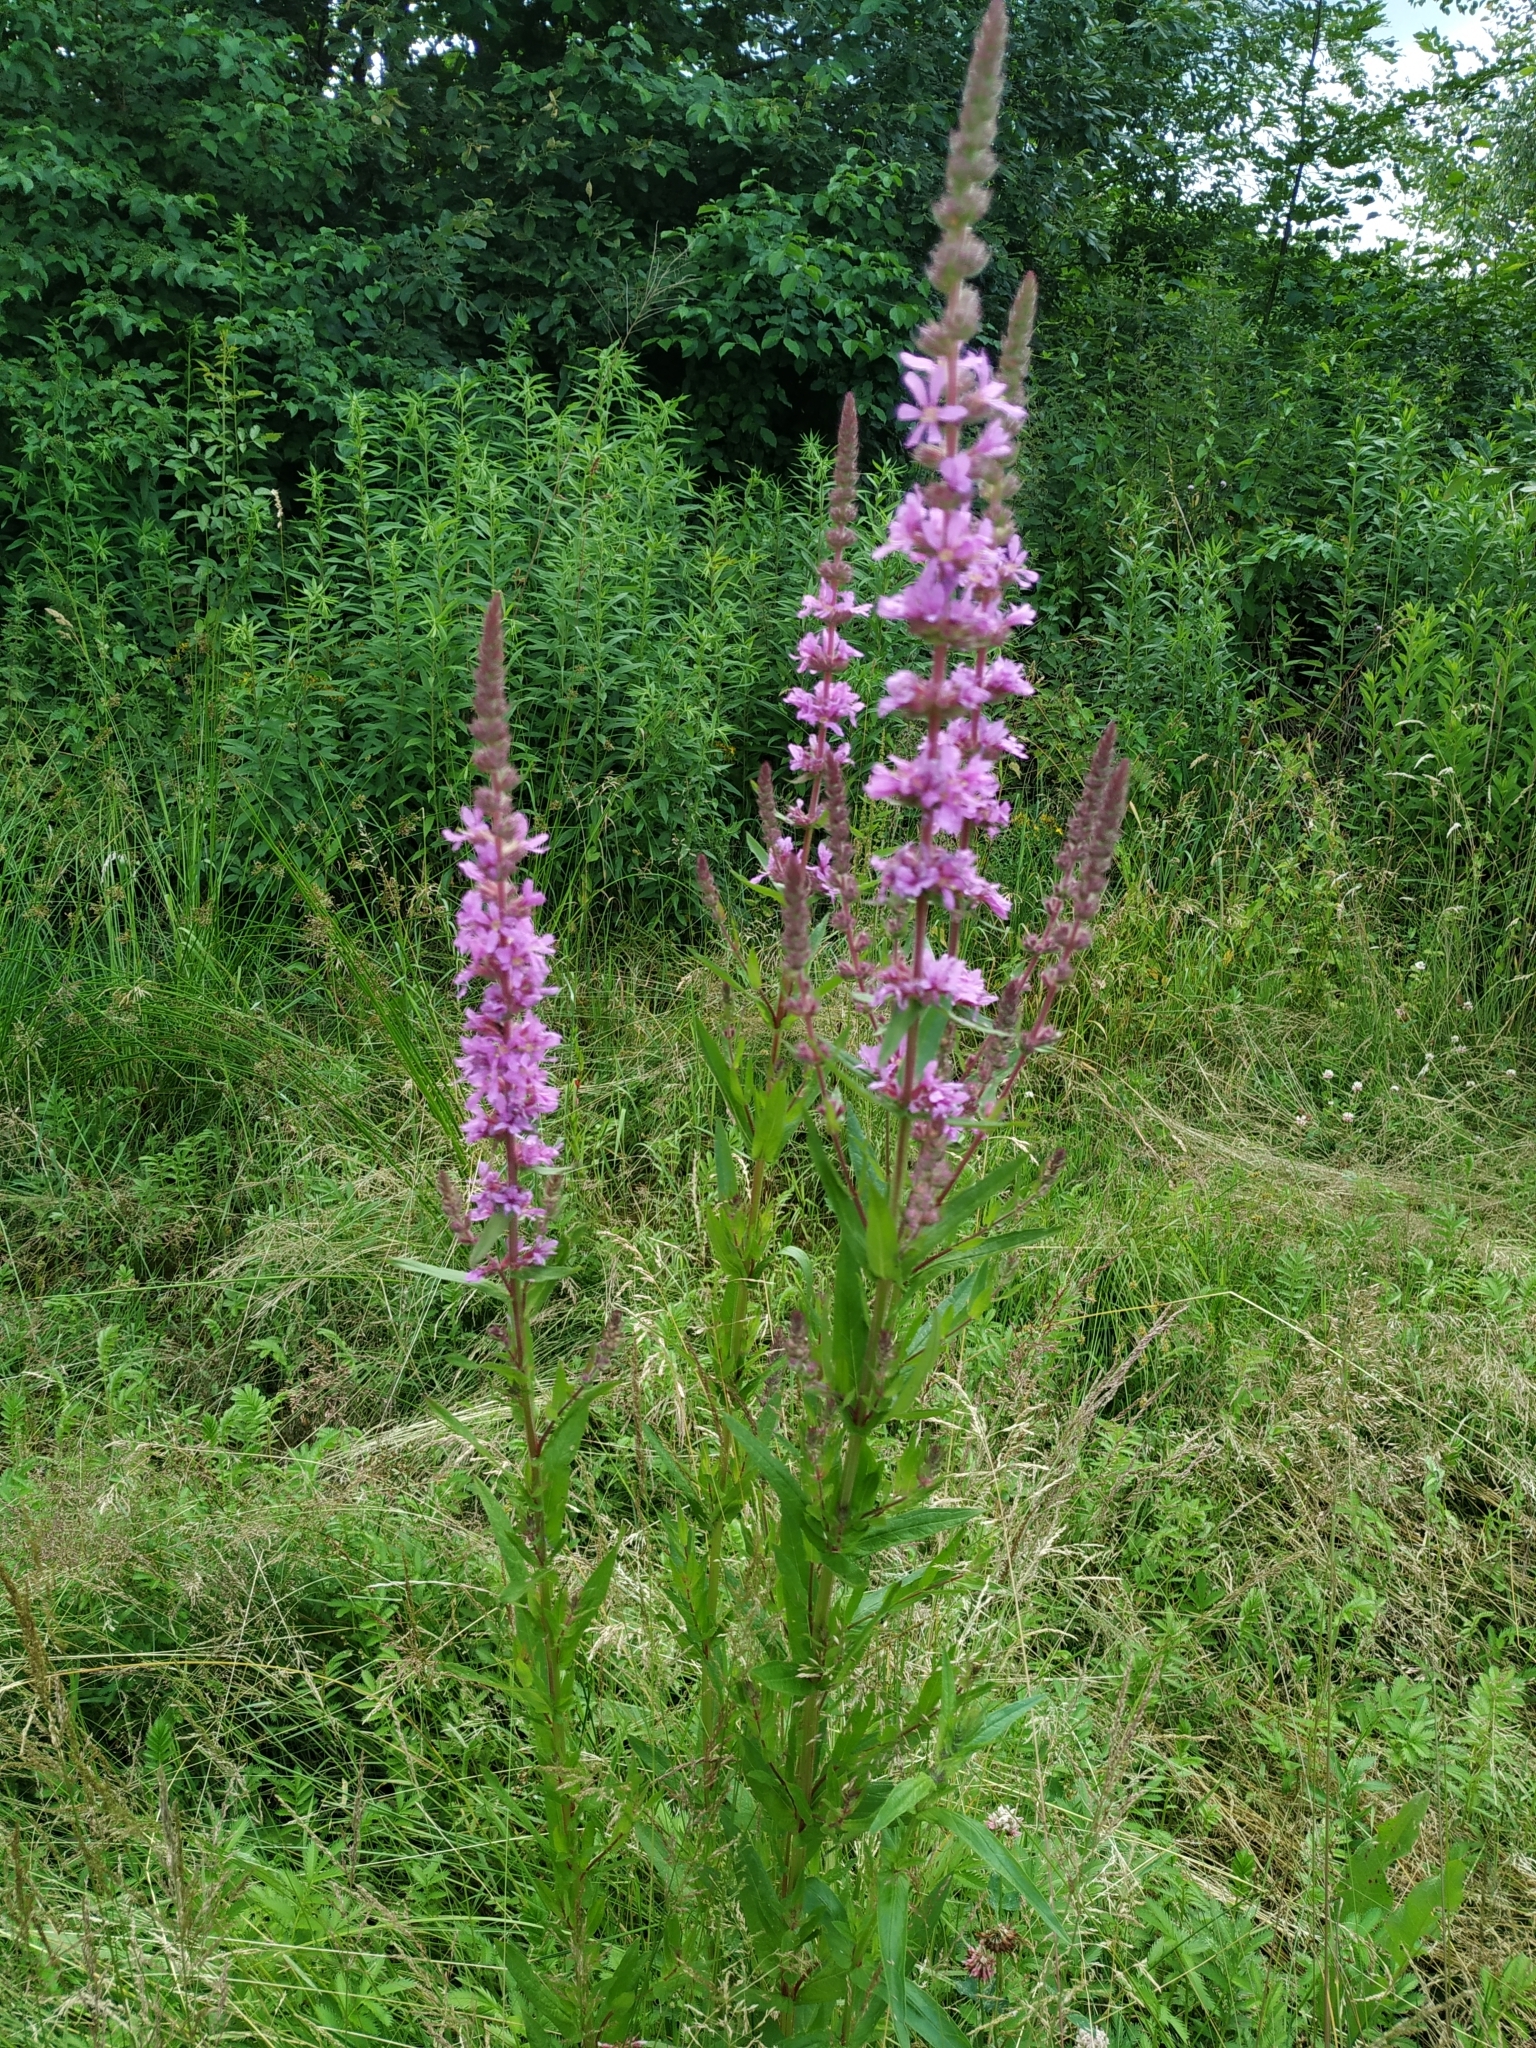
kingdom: Plantae
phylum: Tracheophyta
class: Magnoliopsida
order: Myrtales
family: Lythraceae
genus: Lythrum
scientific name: Lythrum salicaria
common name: Purple loosestrife
